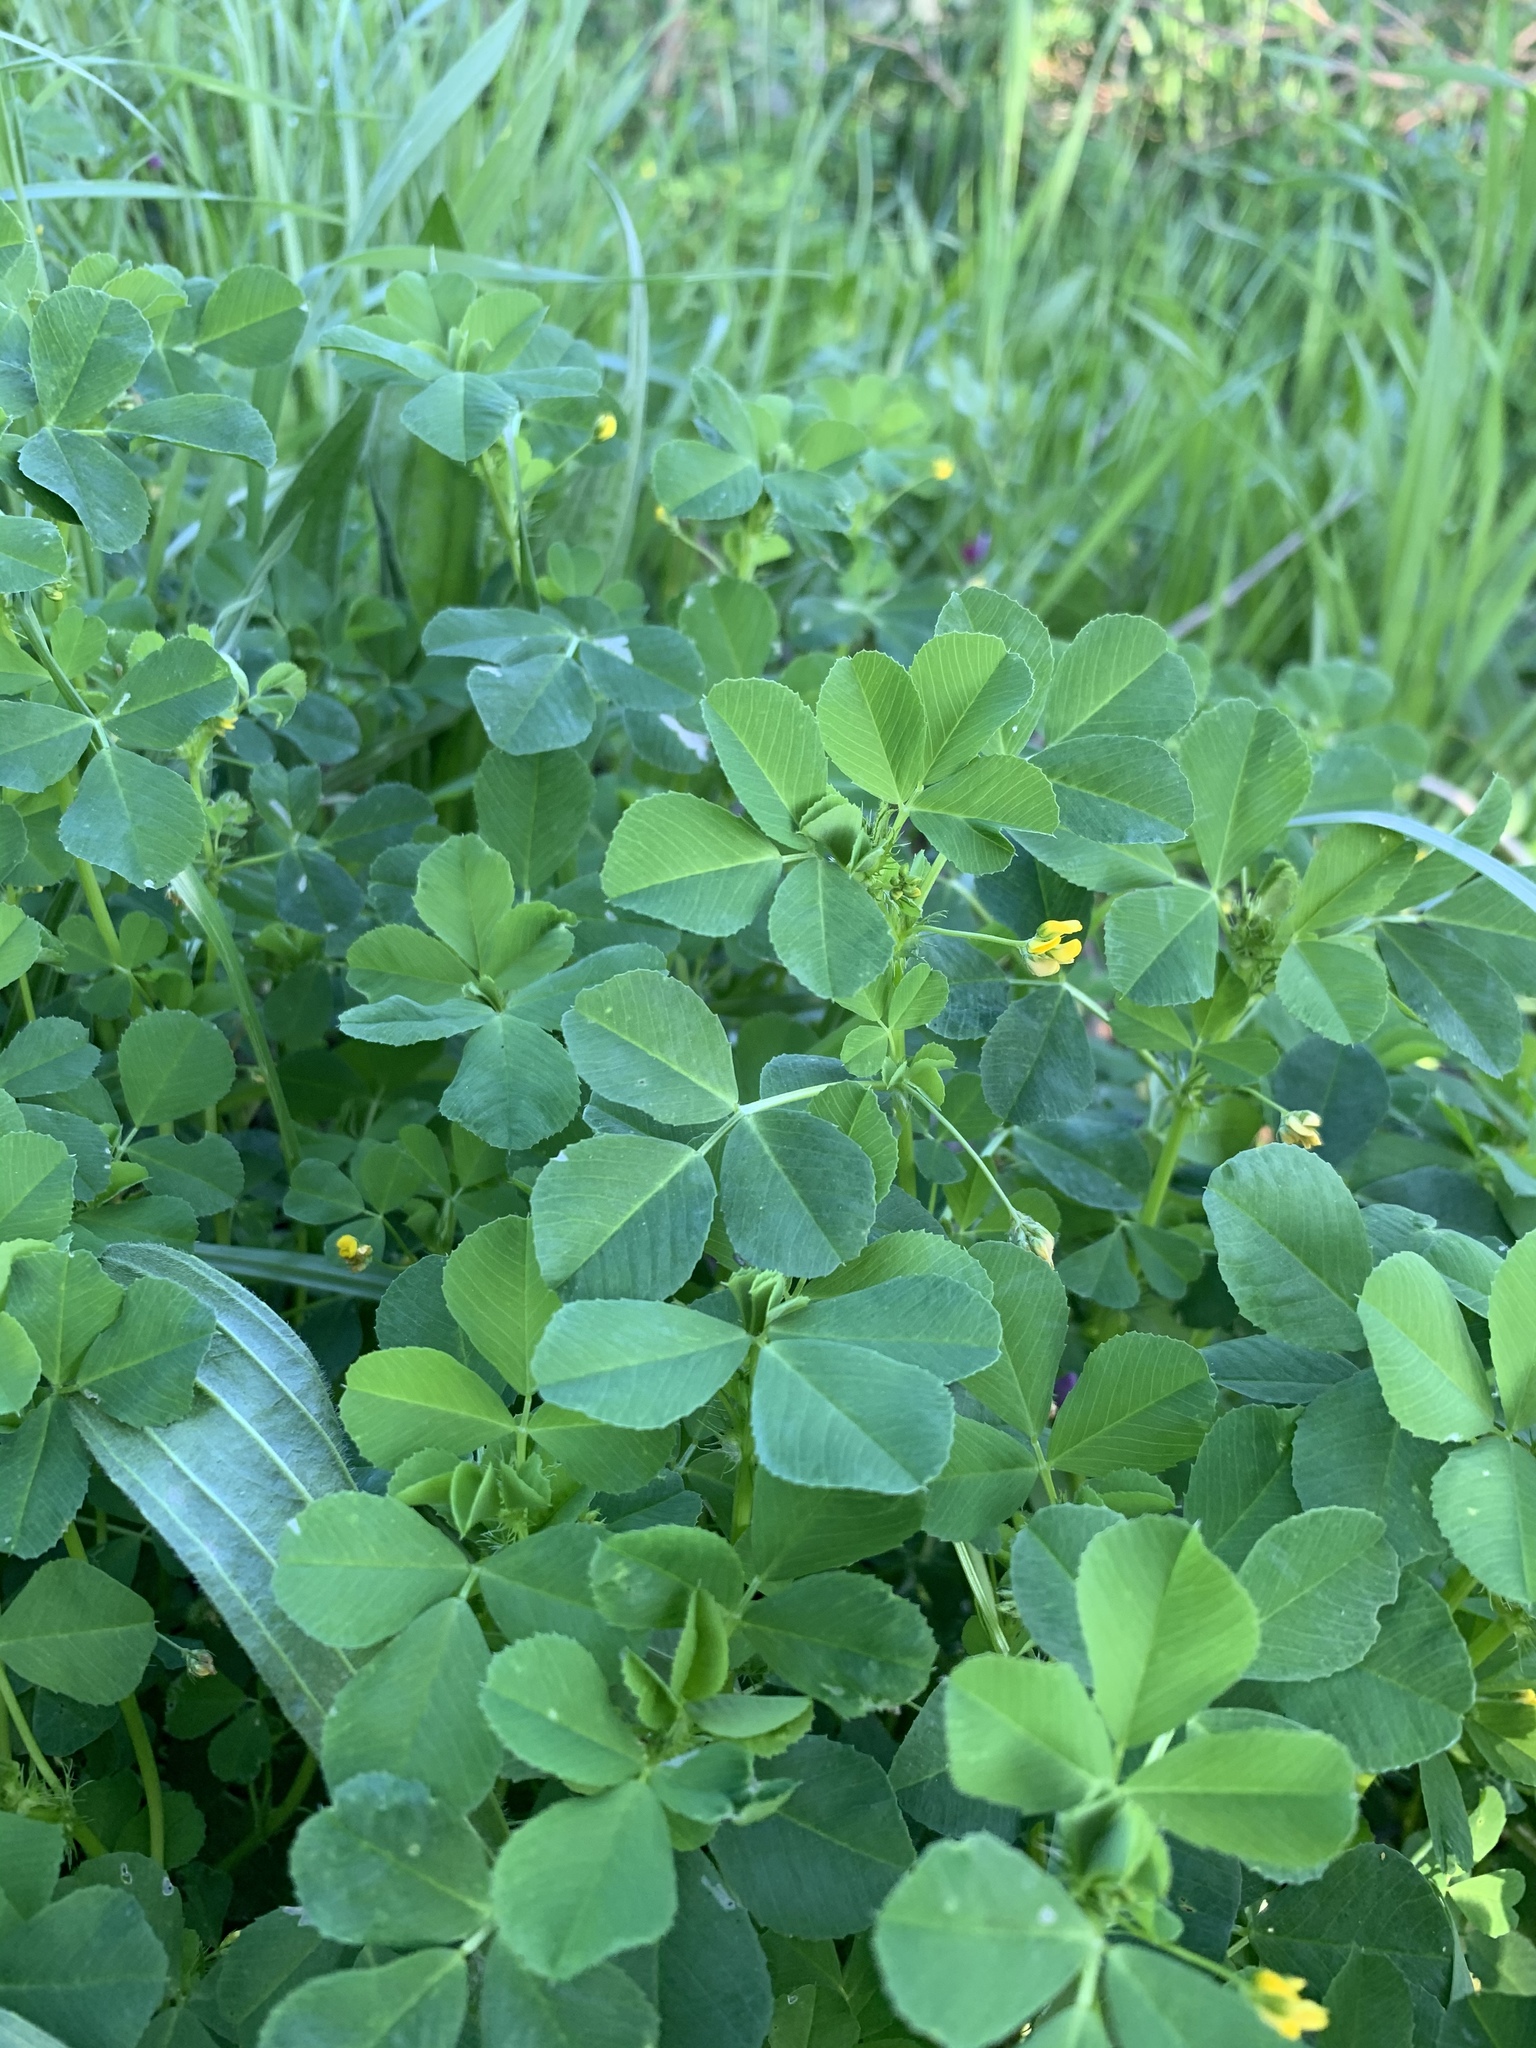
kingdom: Plantae
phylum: Tracheophyta
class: Magnoliopsida
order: Fabales
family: Fabaceae
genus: Medicago
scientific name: Medicago polymorpha
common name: Burclover
